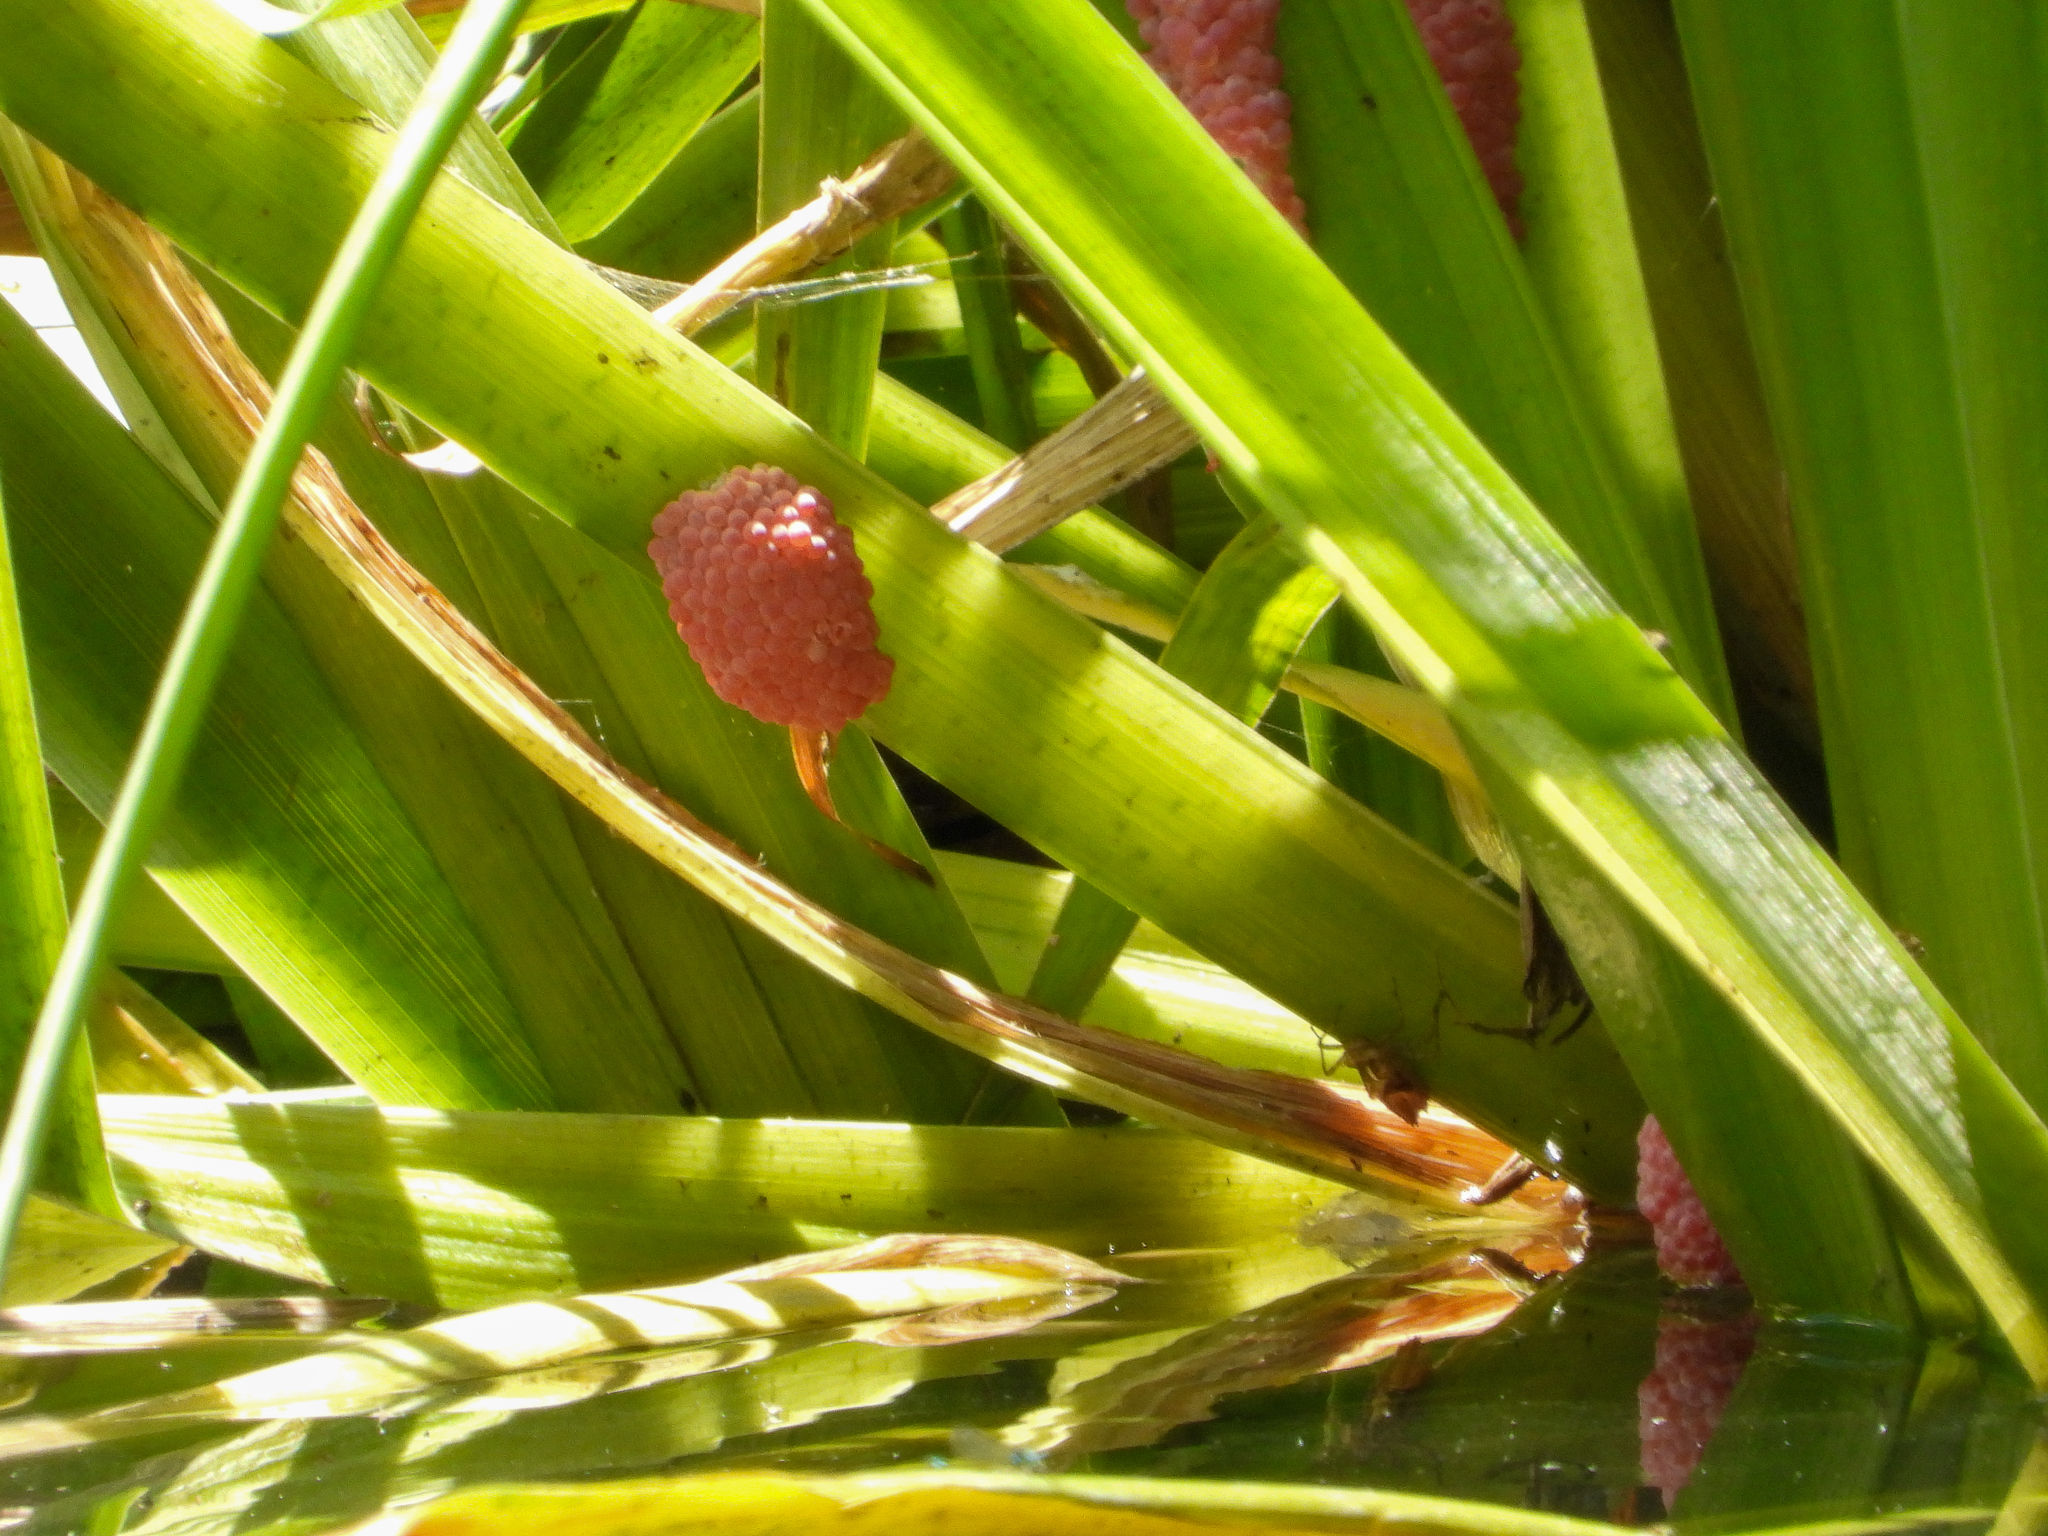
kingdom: Animalia
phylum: Mollusca
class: Gastropoda
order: Architaenioglossa
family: Ampullariidae
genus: Pomacea
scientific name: Pomacea canaliculata
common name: Channeled applesnail
